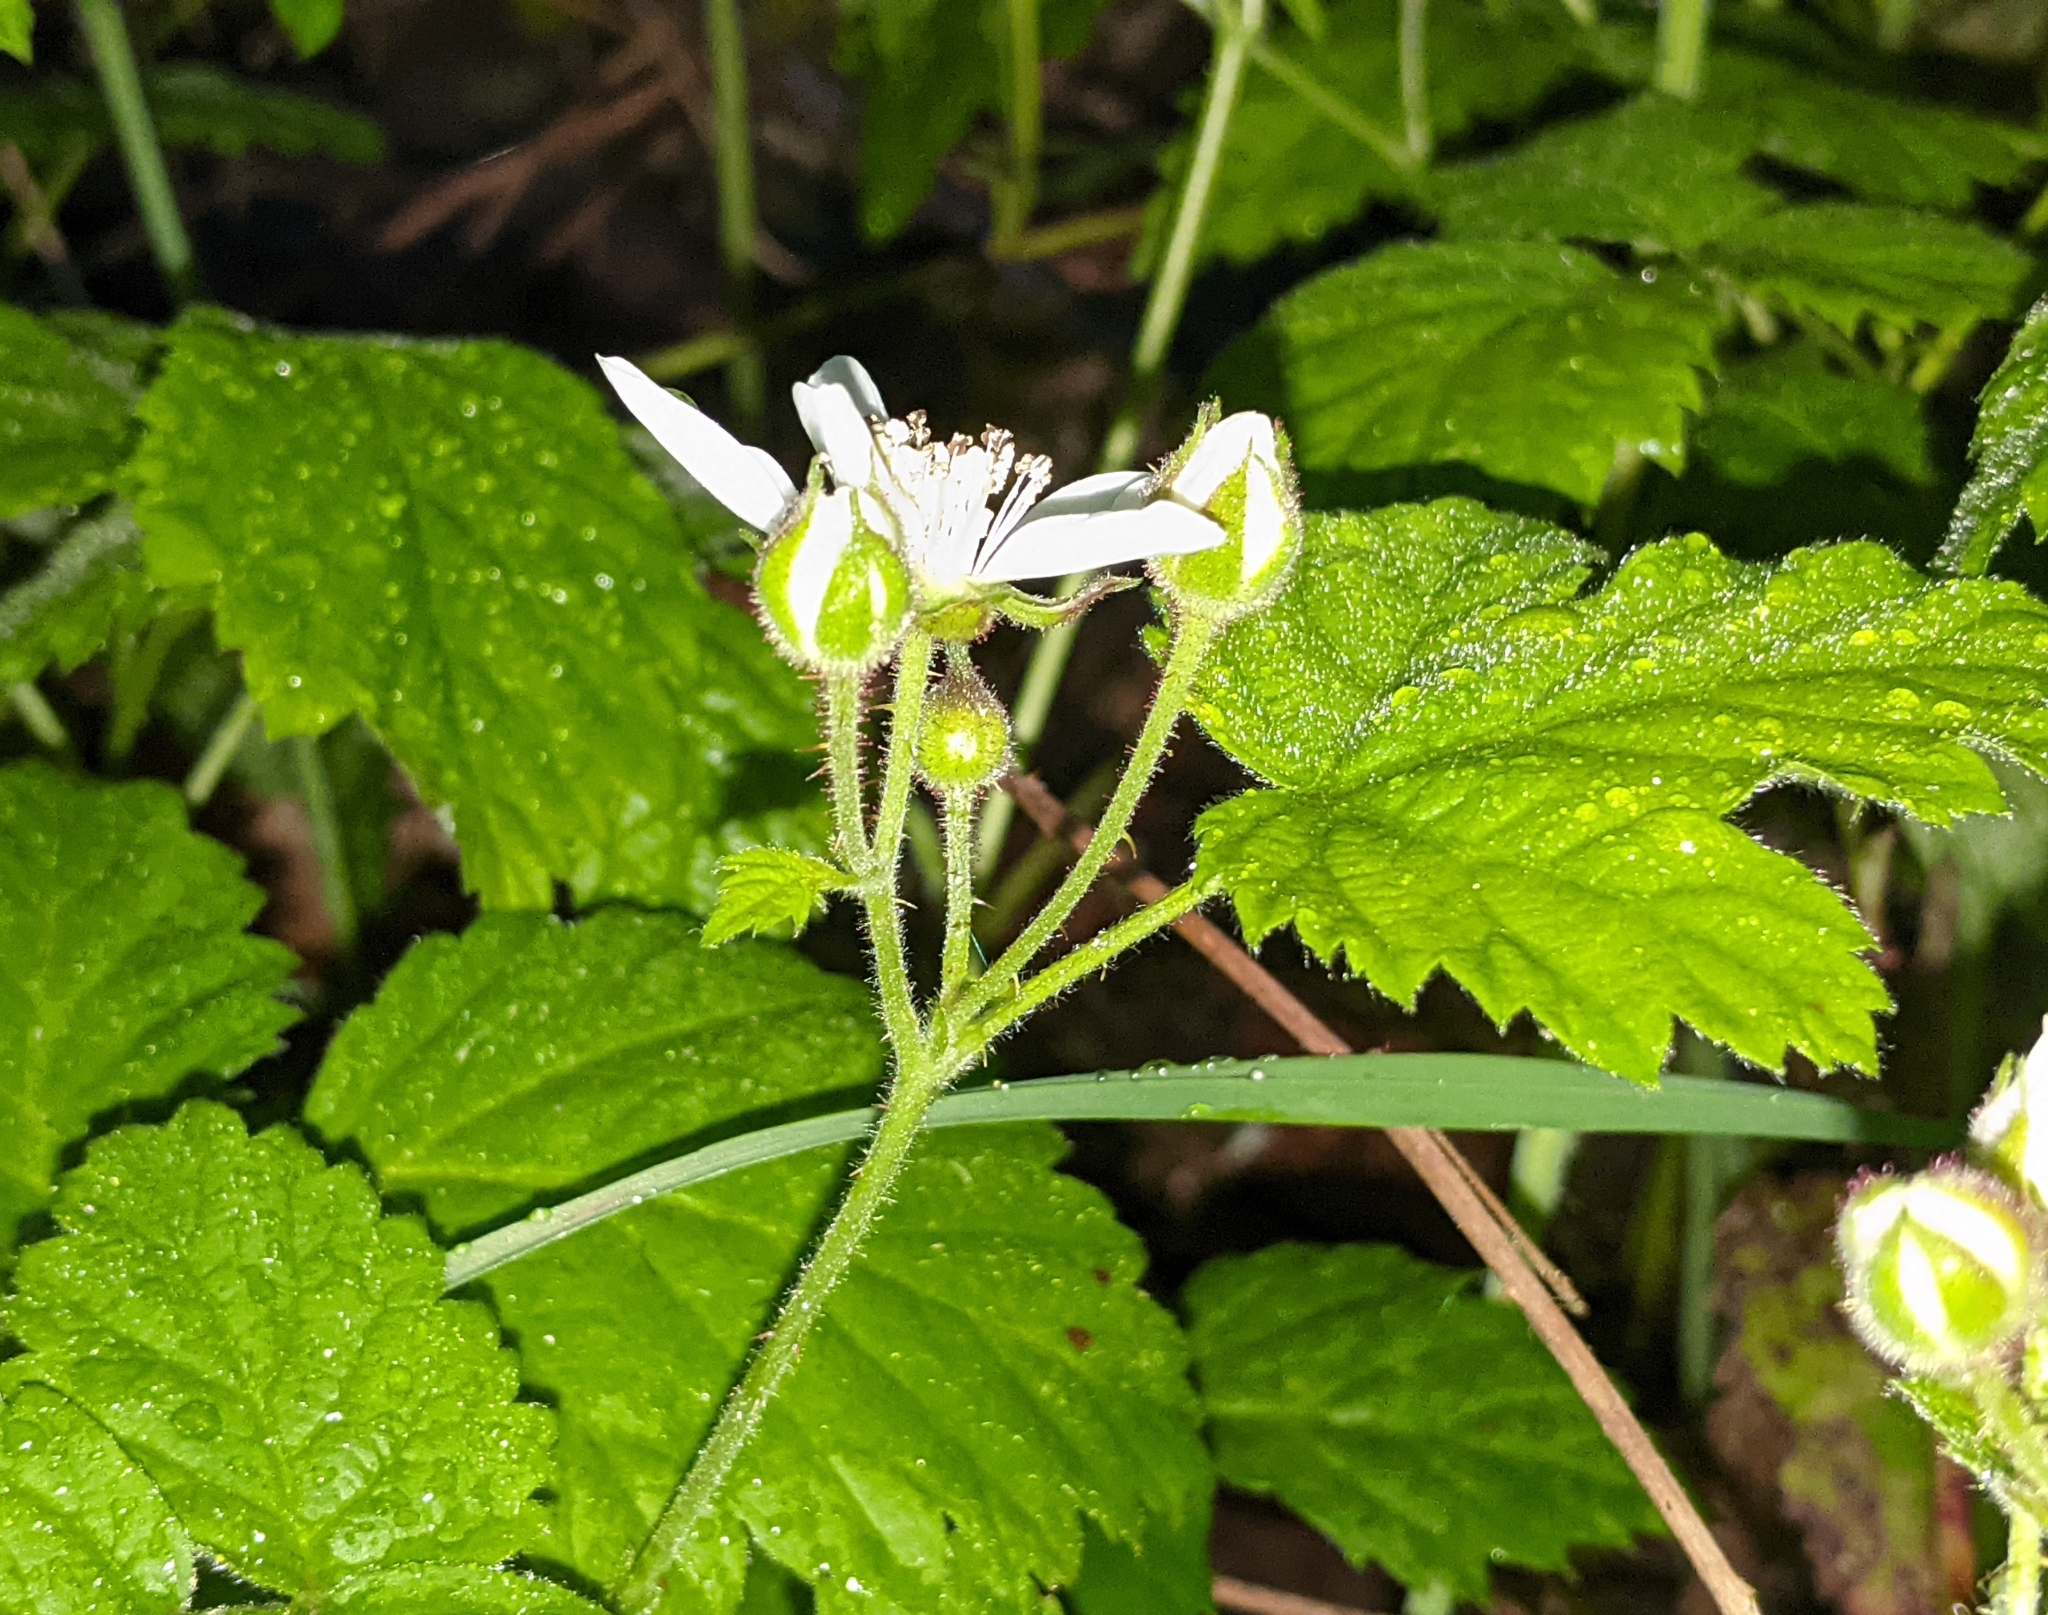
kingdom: Plantae
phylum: Tracheophyta
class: Magnoliopsida
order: Rosales
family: Rosaceae
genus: Rubus
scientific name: Rubus ursinus
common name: Pacific blackberry
